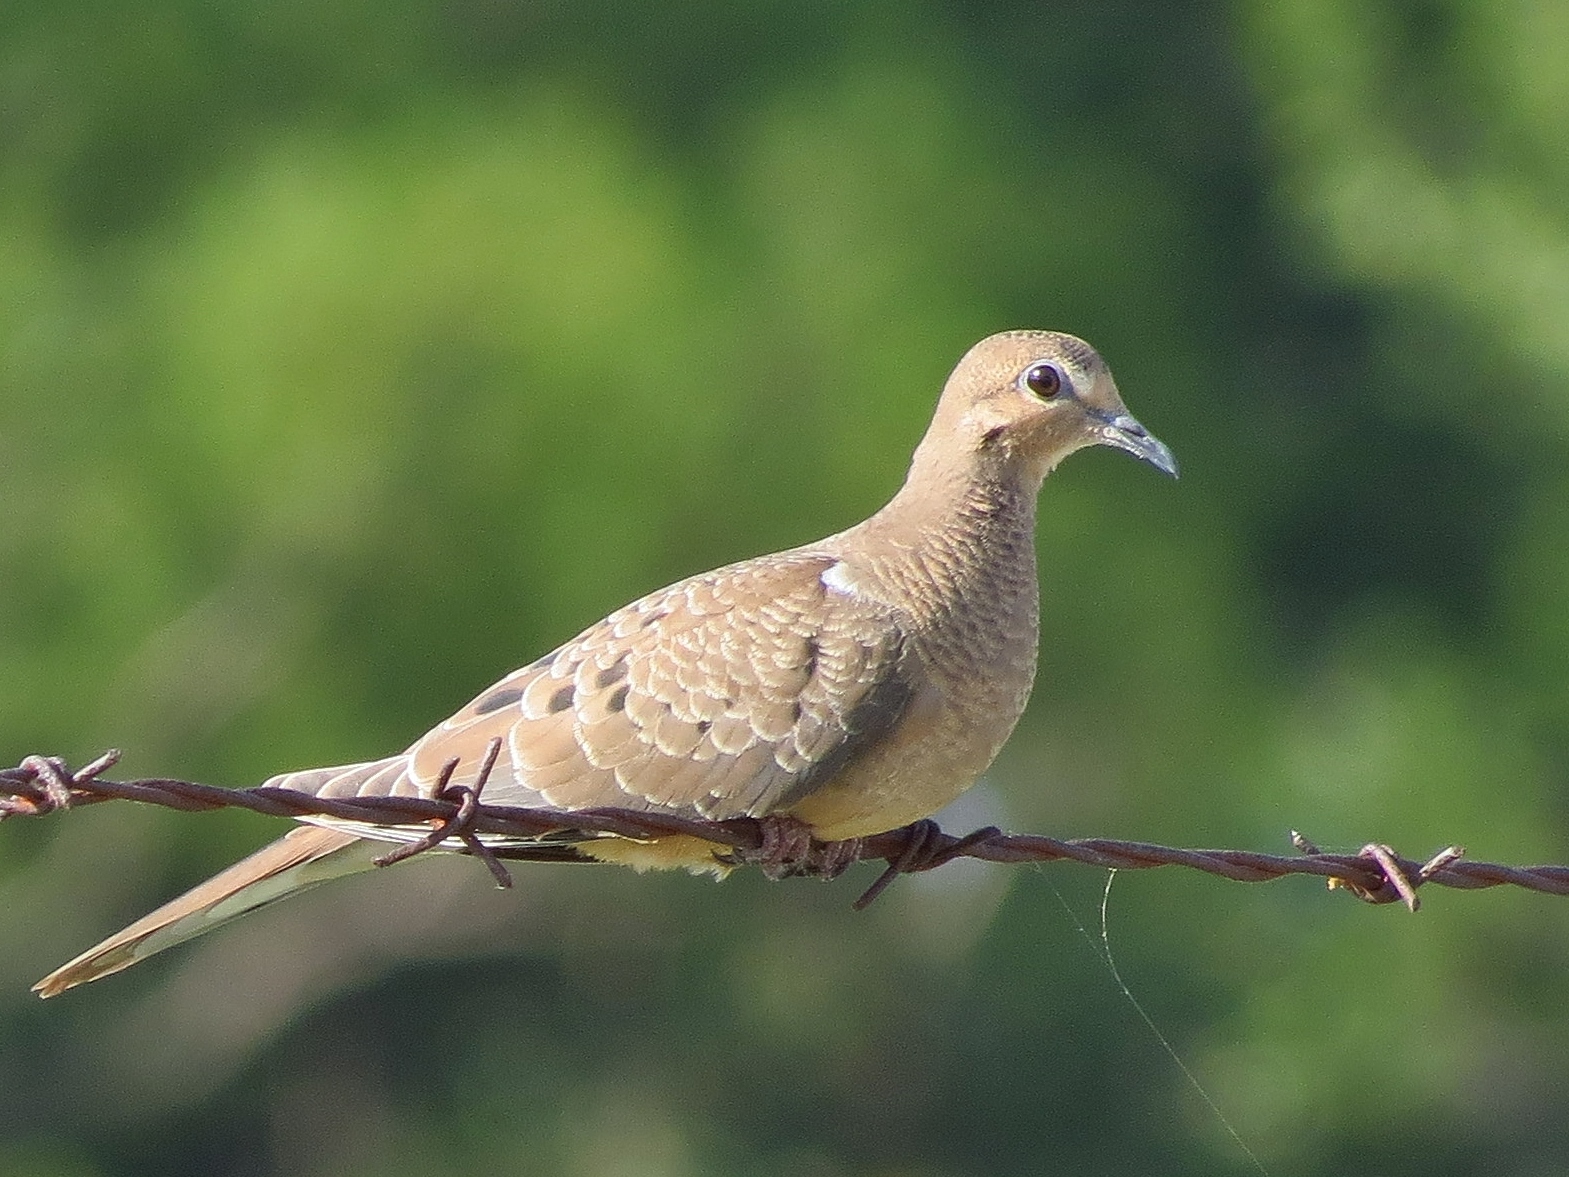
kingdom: Animalia
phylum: Chordata
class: Aves
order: Columbiformes
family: Columbidae
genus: Zenaida
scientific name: Zenaida macroura
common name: Mourning dove
